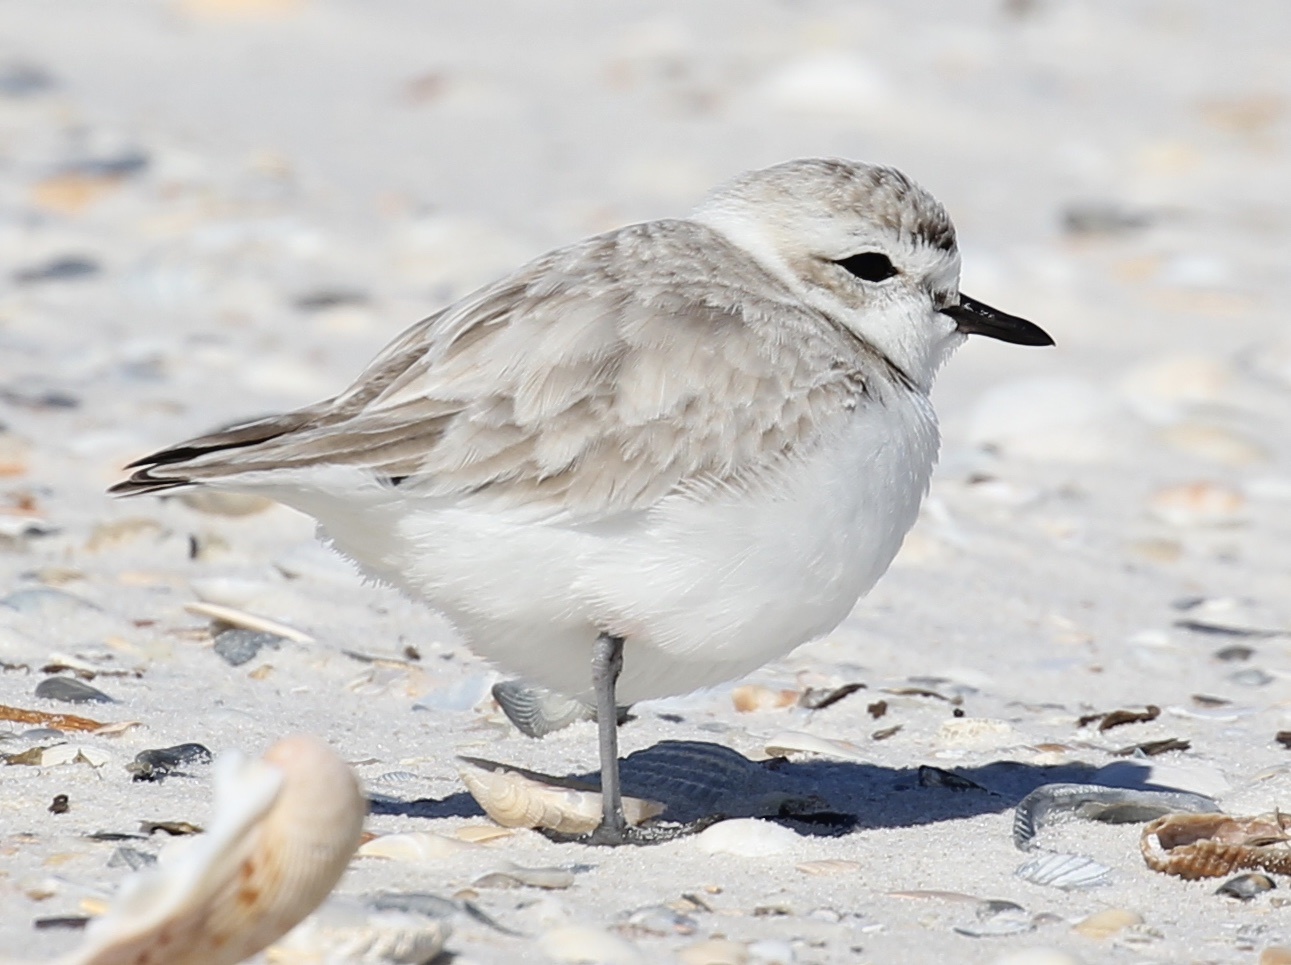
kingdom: Animalia
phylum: Chordata
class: Aves
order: Charadriiformes
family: Charadriidae
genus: Anarhynchus
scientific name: Anarhynchus
